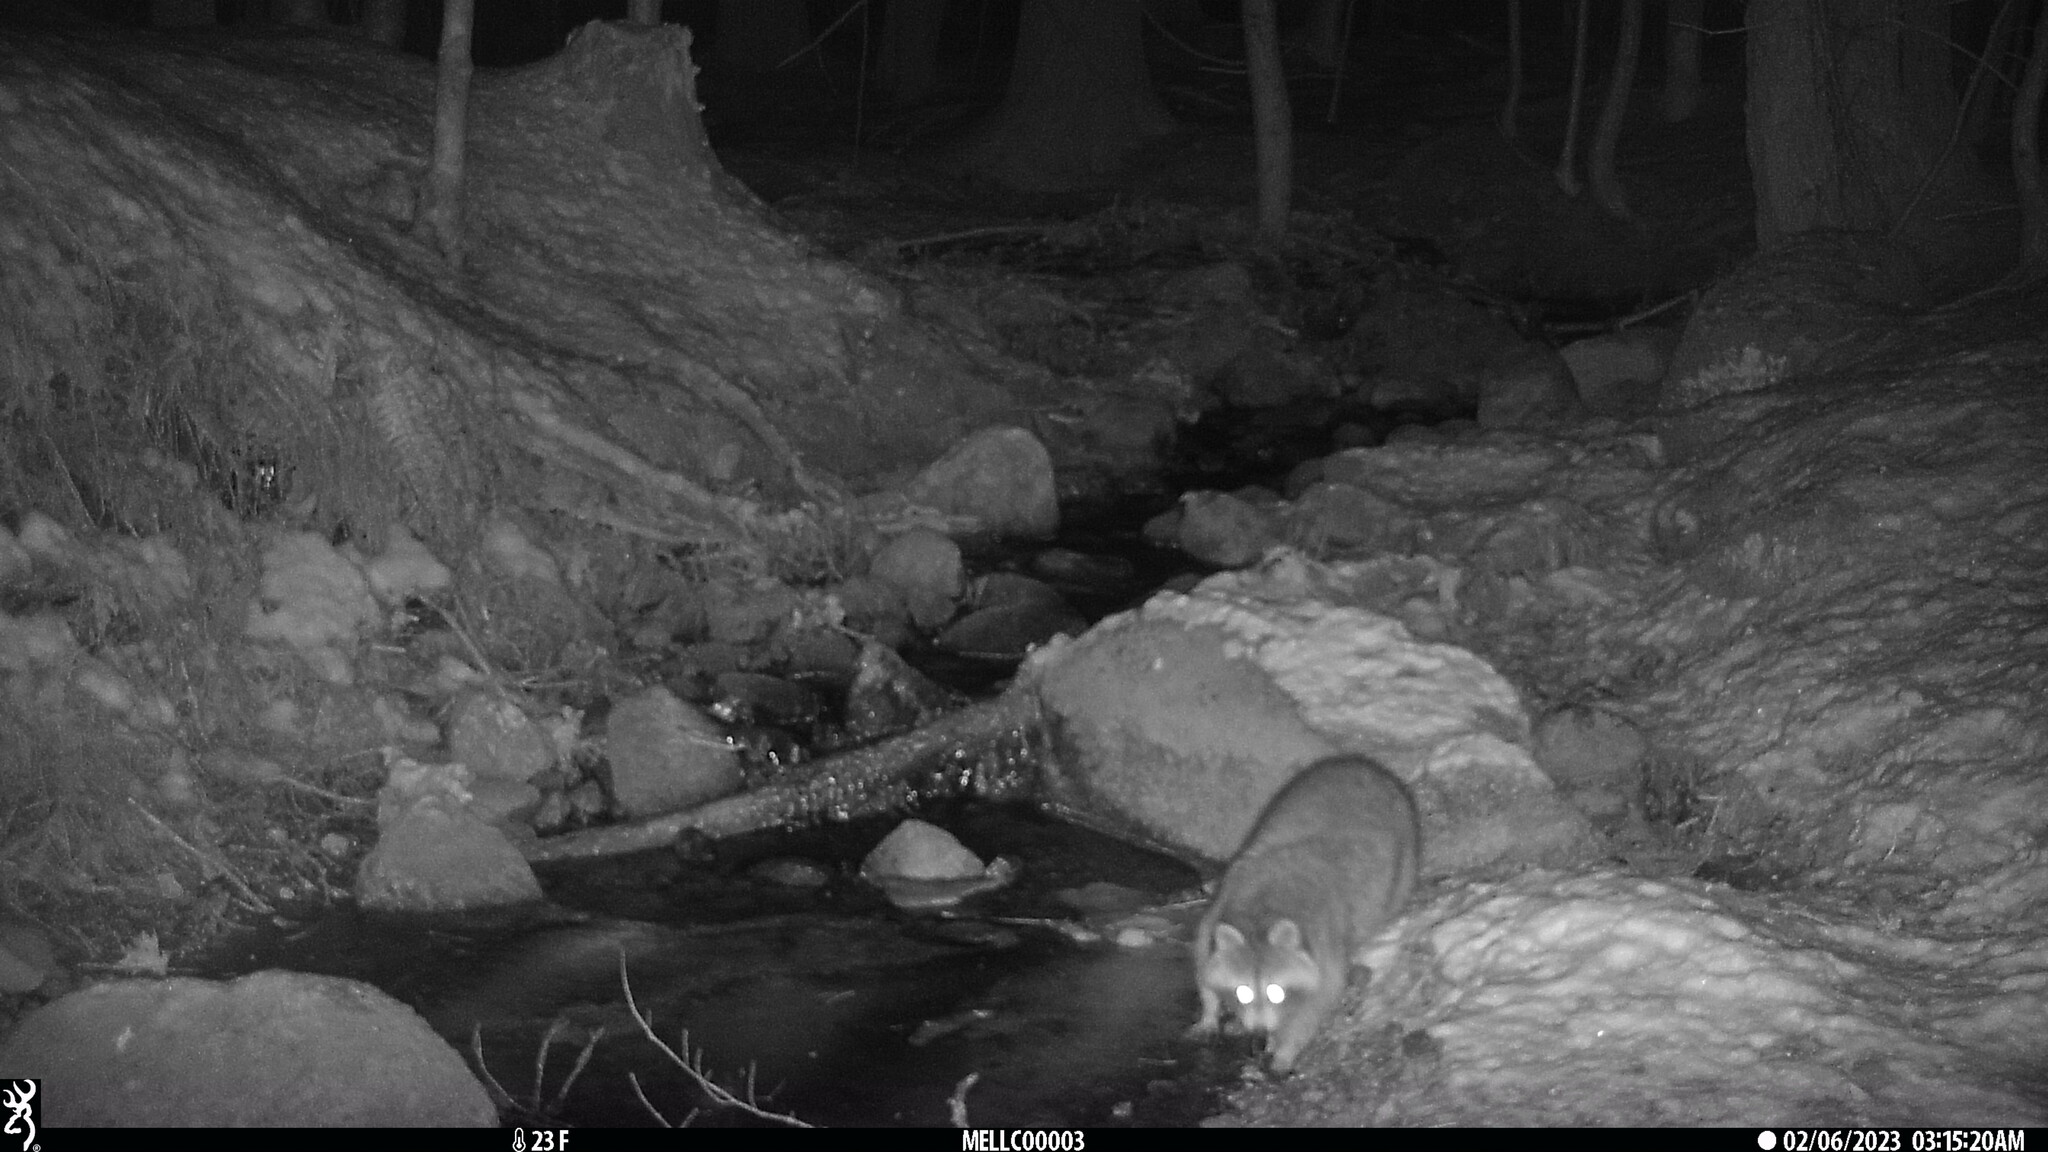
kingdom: Animalia
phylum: Chordata
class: Mammalia
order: Carnivora
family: Procyonidae
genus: Procyon
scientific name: Procyon lotor
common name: Raccoon
